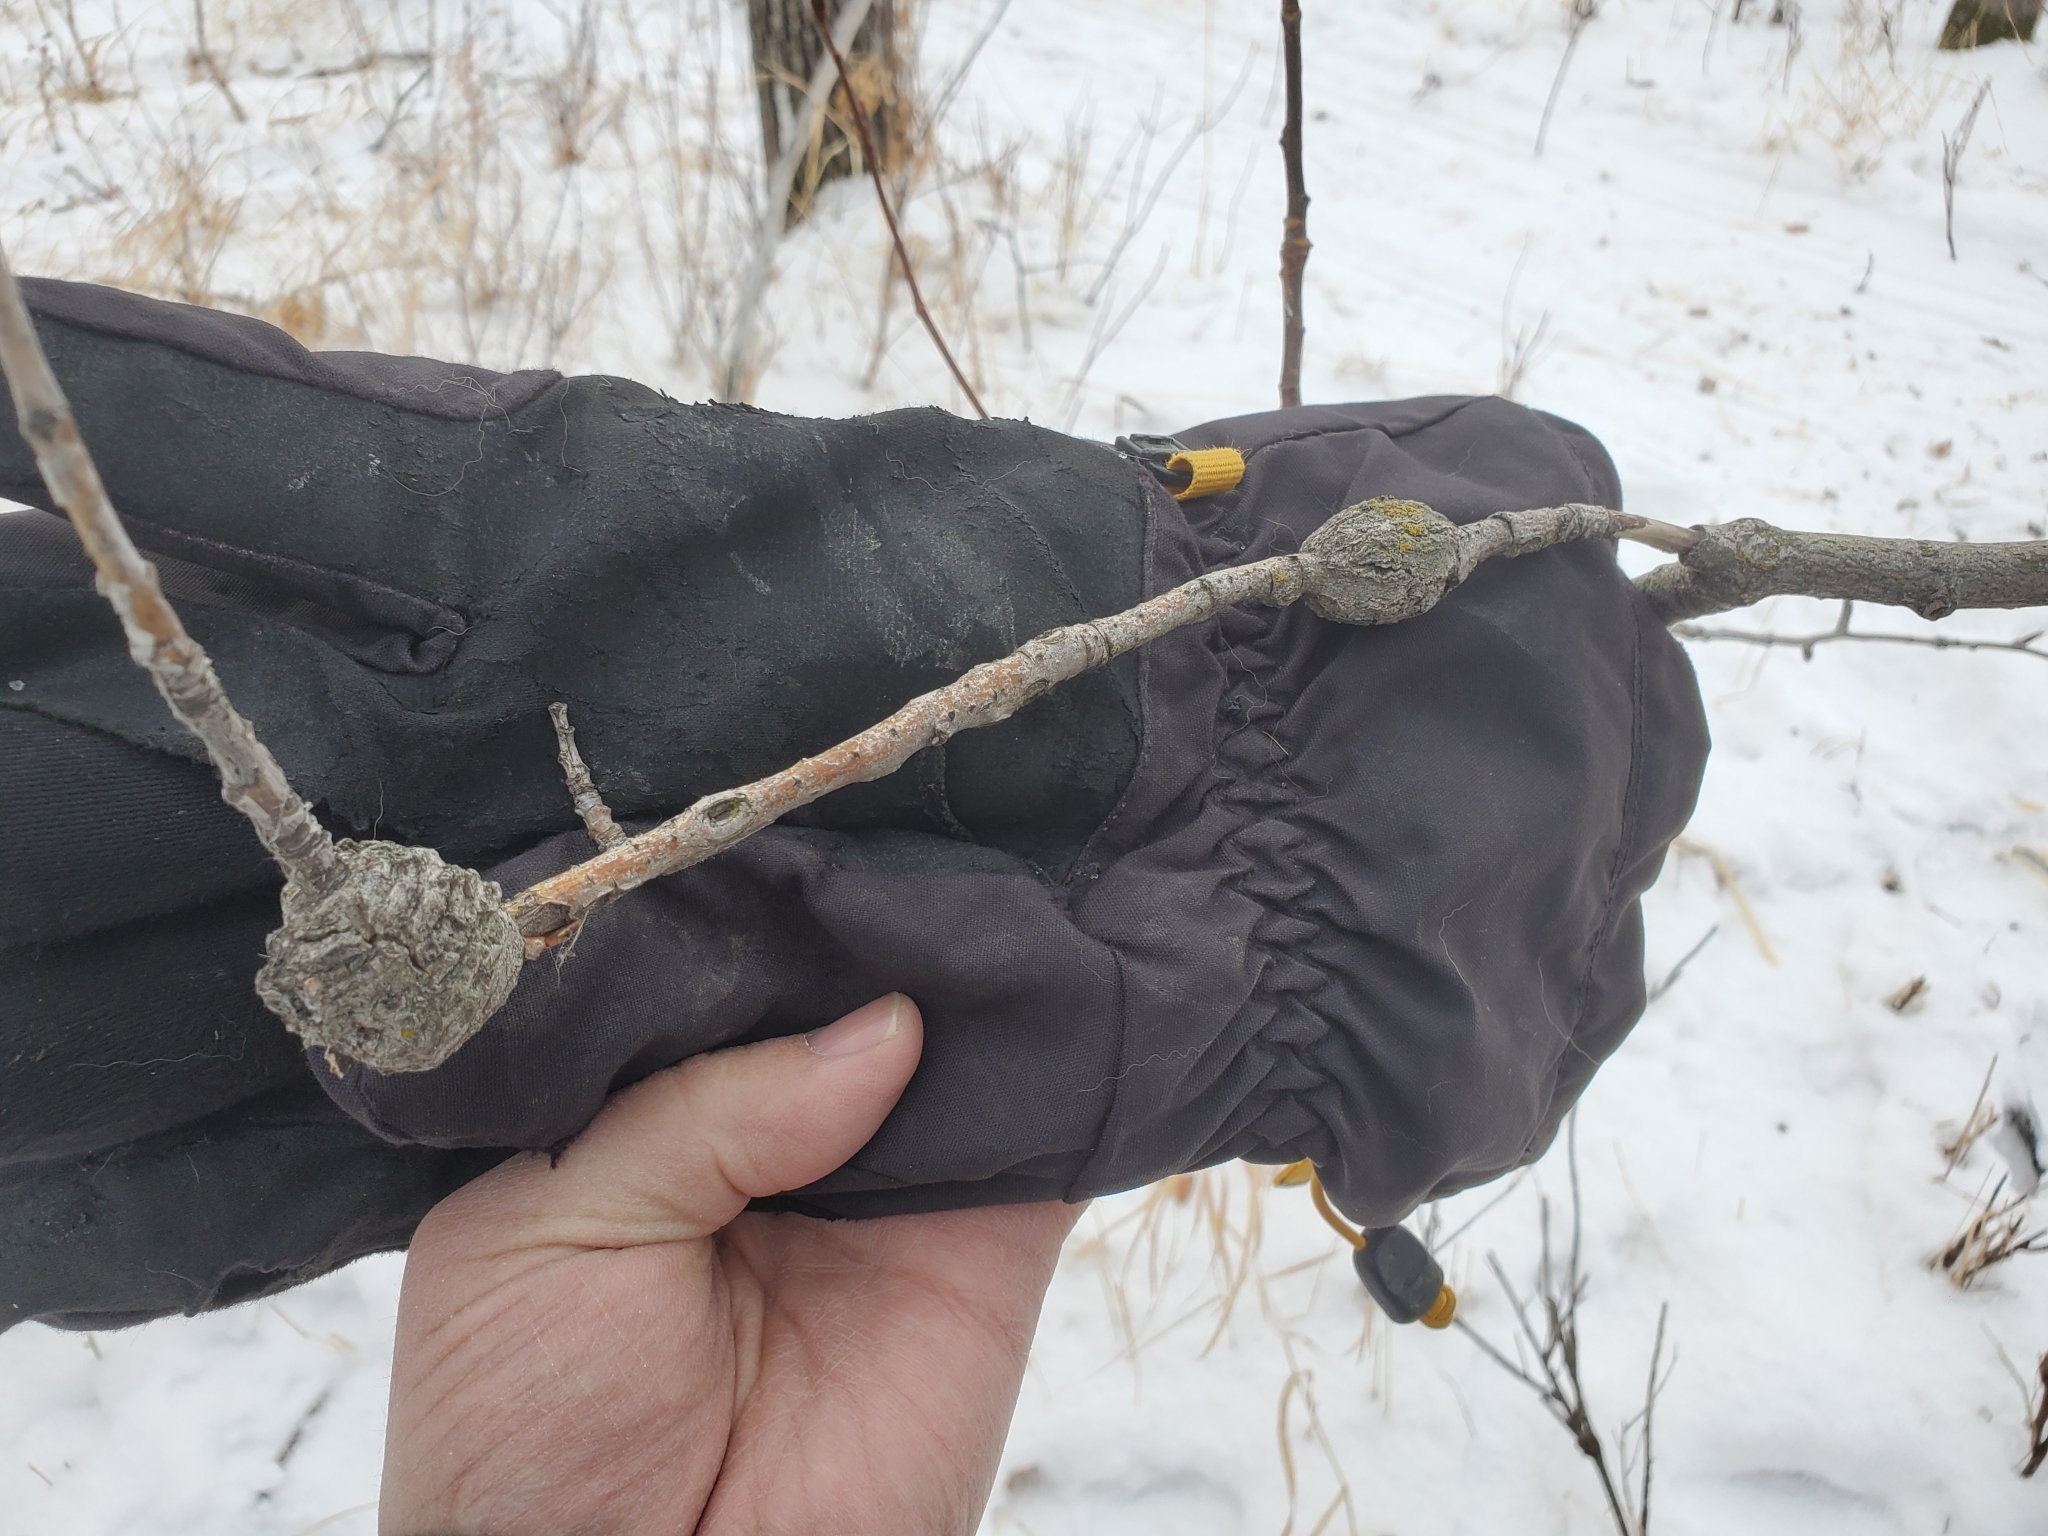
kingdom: Fungi
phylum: Ascomycota
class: Dothideomycetes
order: Botryosphaeriales
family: Botryosphaeriaceae
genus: Diplodia
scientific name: Diplodia tumefaciens
